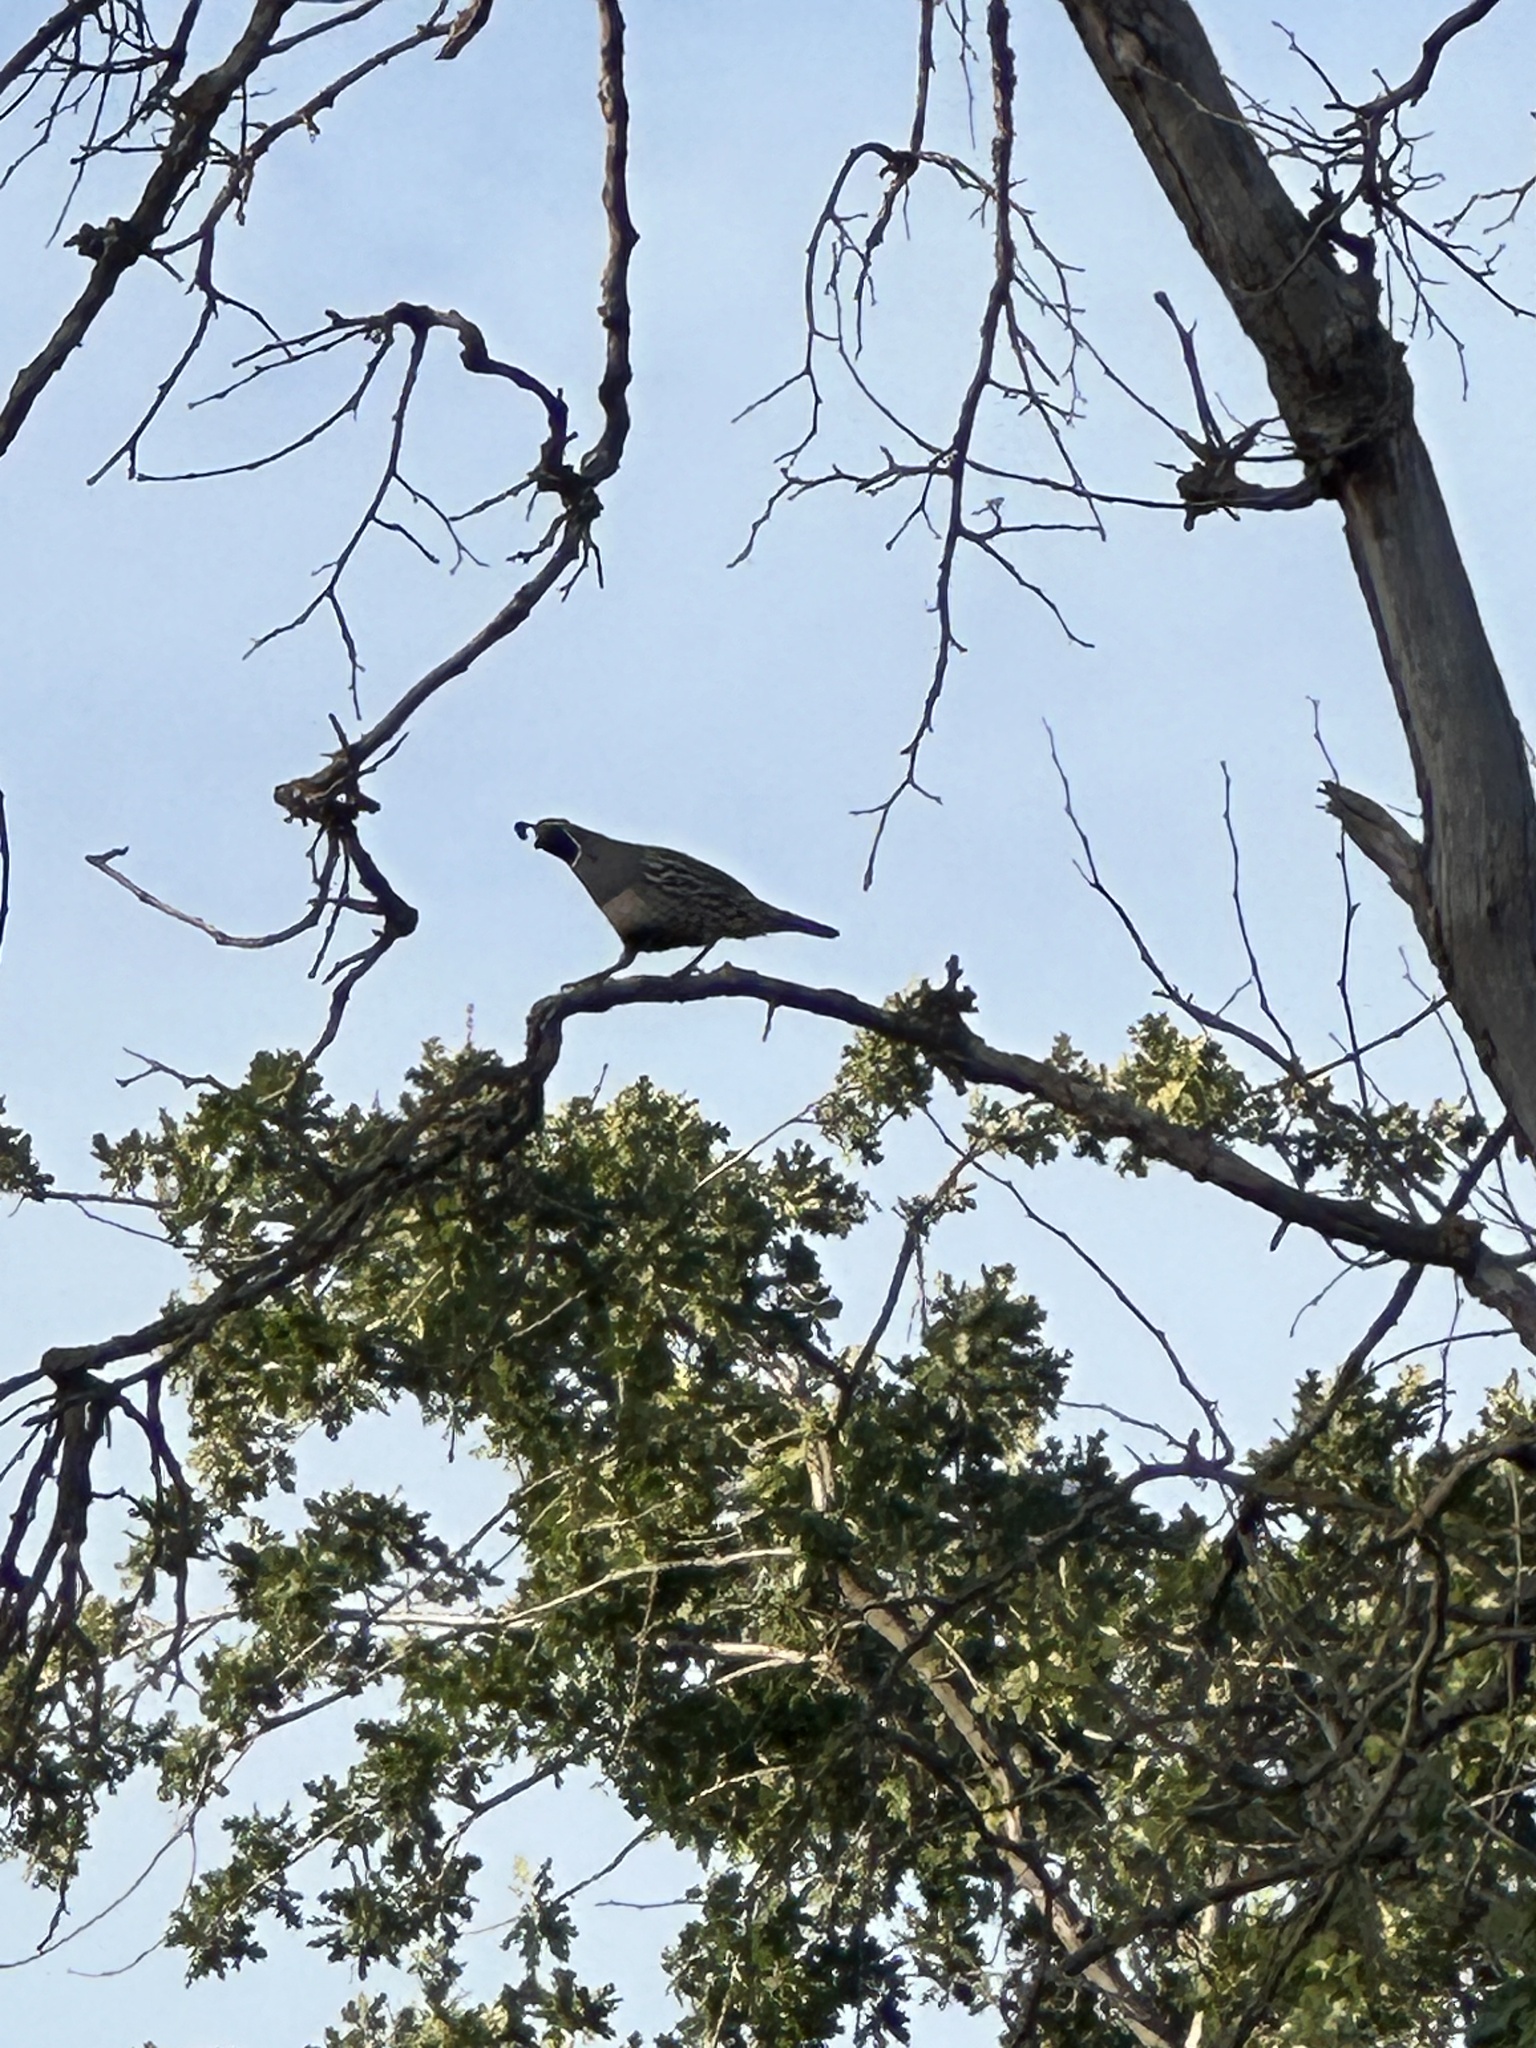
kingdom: Animalia
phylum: Chordata
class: Aves
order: Galliformes
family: Odontophoridae
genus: Callipepla
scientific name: Callipepla californica
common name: California quail
